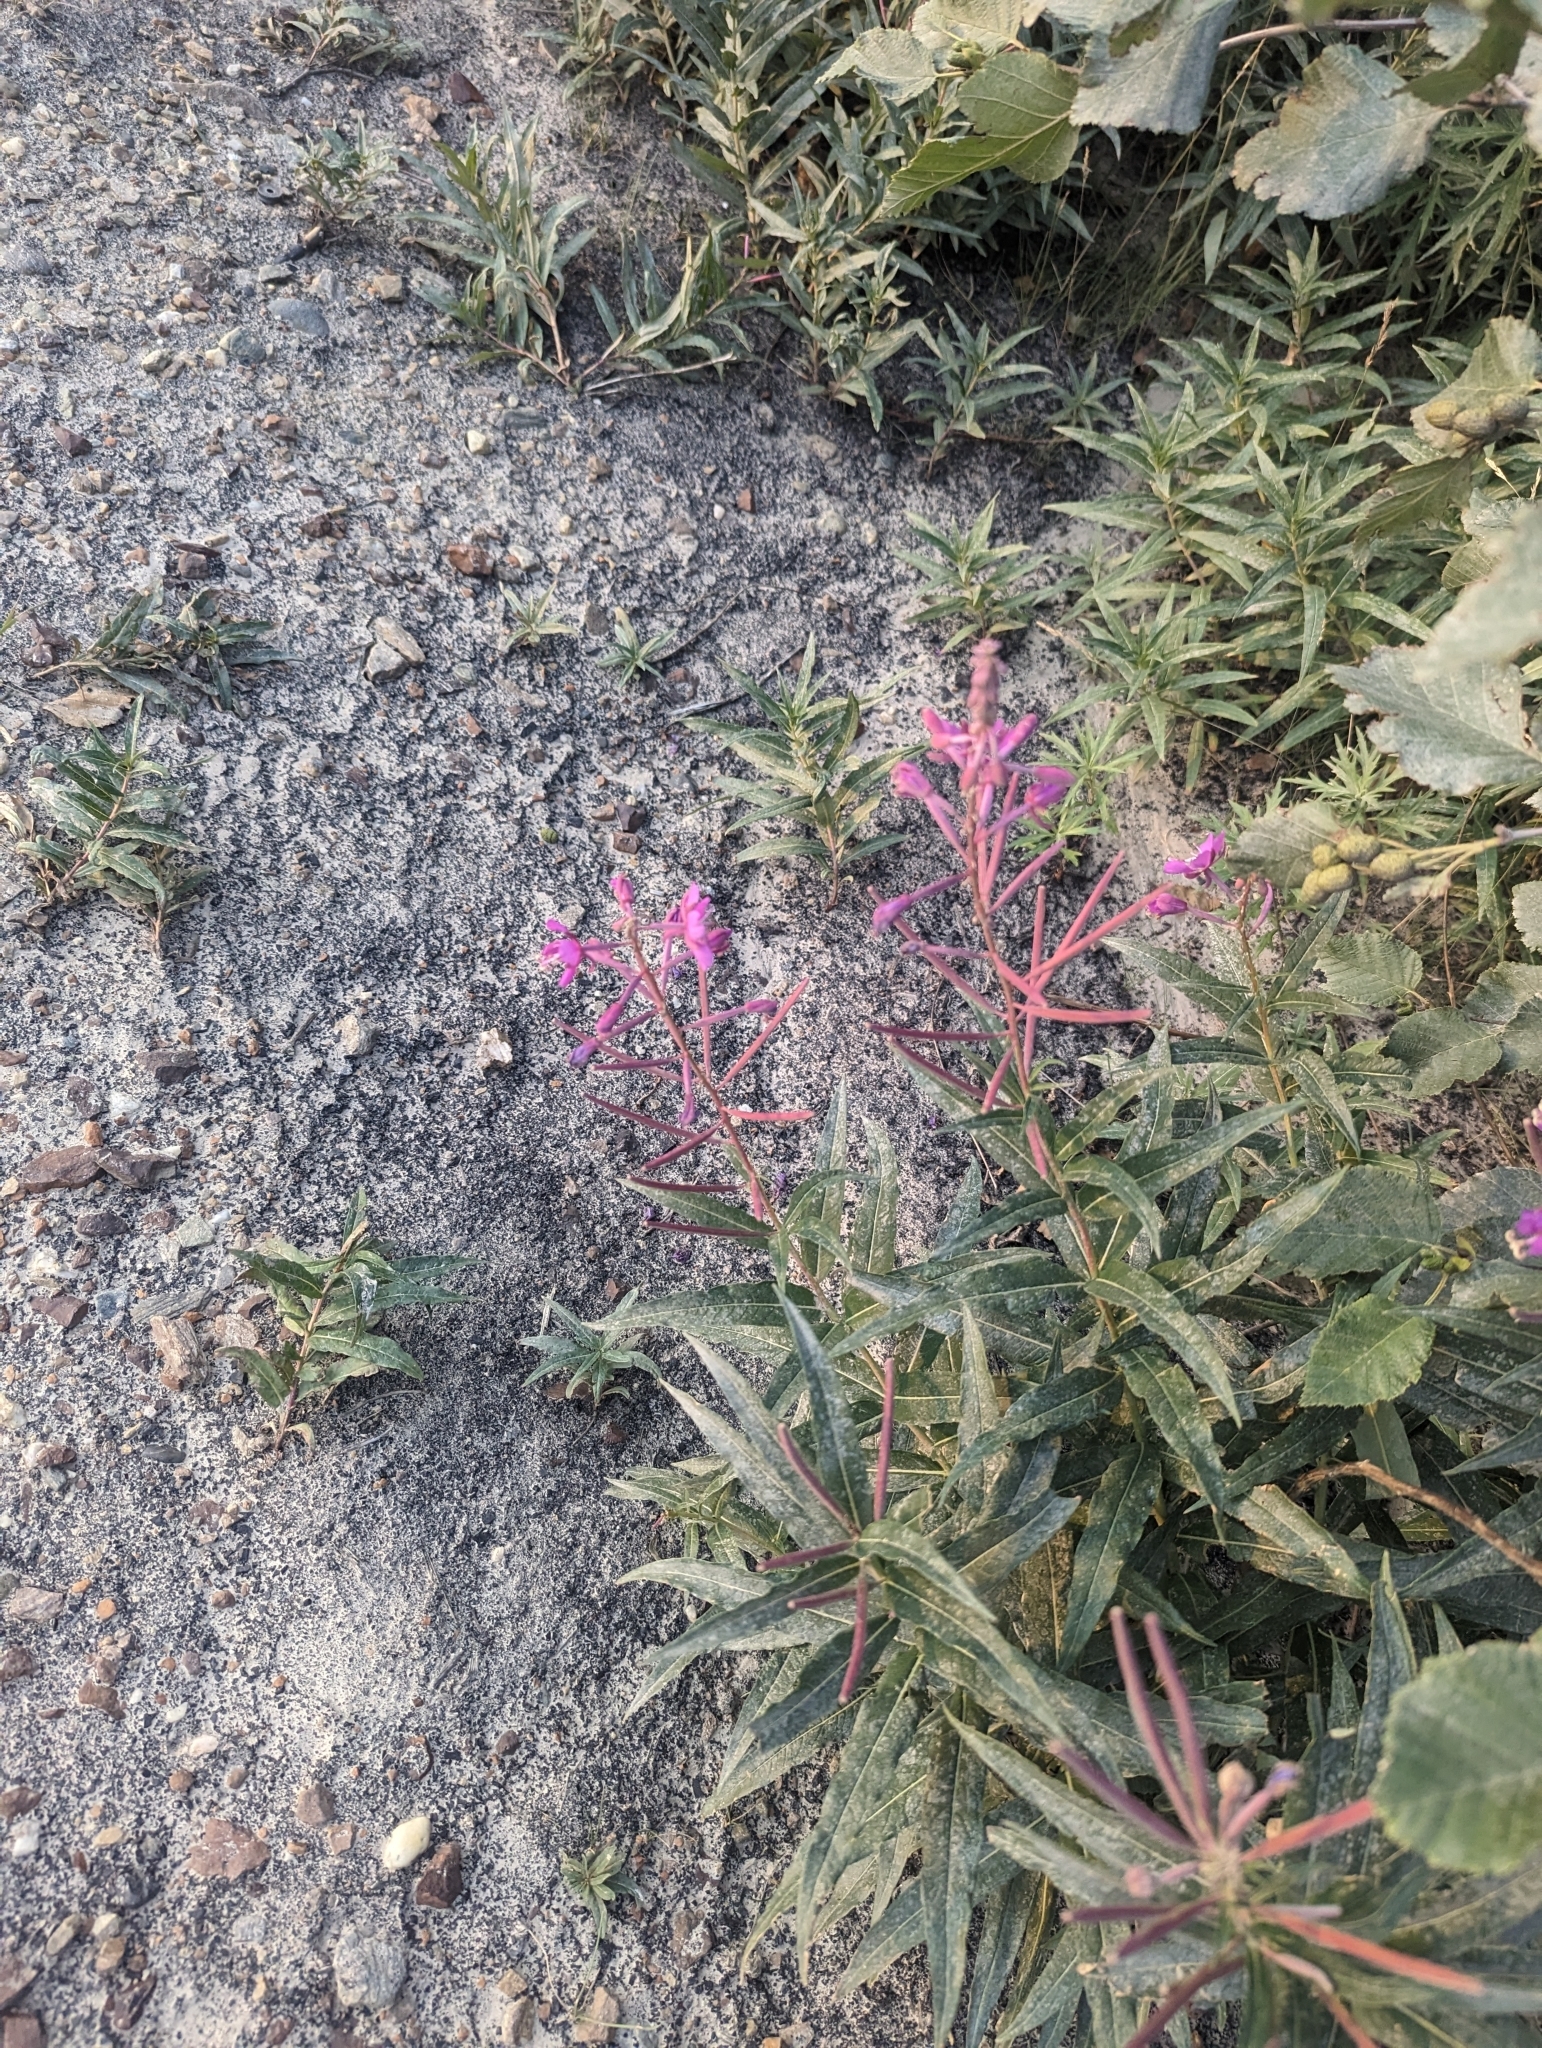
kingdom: Plantae
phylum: Tracheophyta
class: Magnoliopsida
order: Myrtales
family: Onagraceae
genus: Chamaenerion
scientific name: Chamaenerion angustifolium
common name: Fireweed
